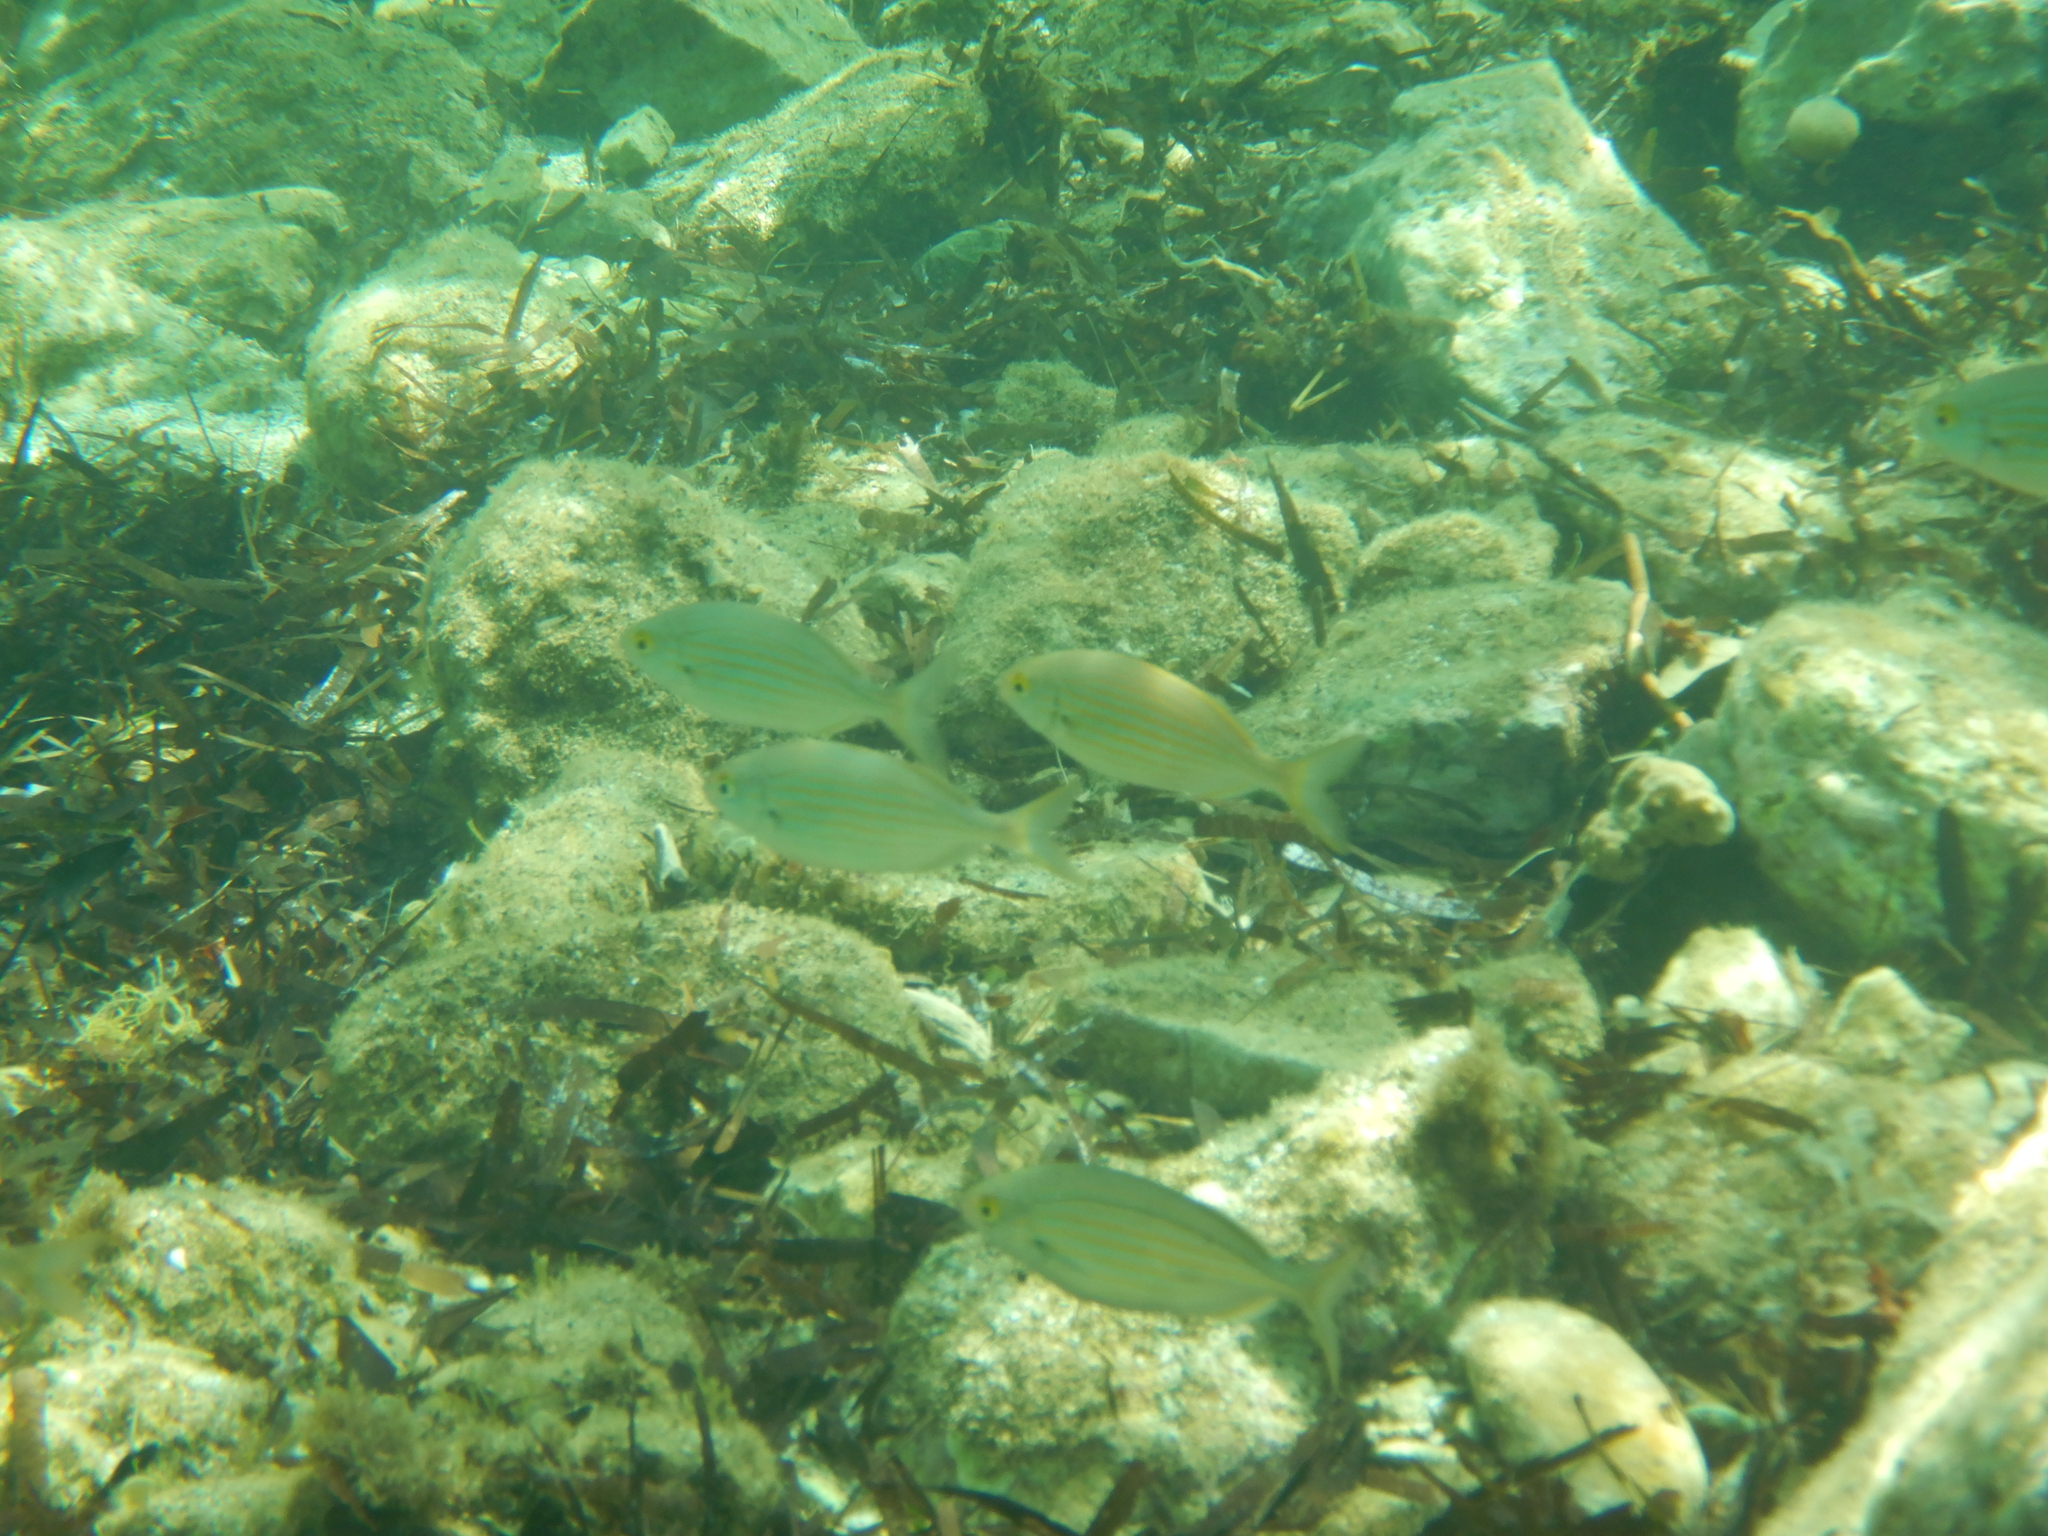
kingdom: Animalia
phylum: Chordata
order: Perciformes
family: Sparidae
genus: Sarpa
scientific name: Sarpa salpa
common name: Salema
